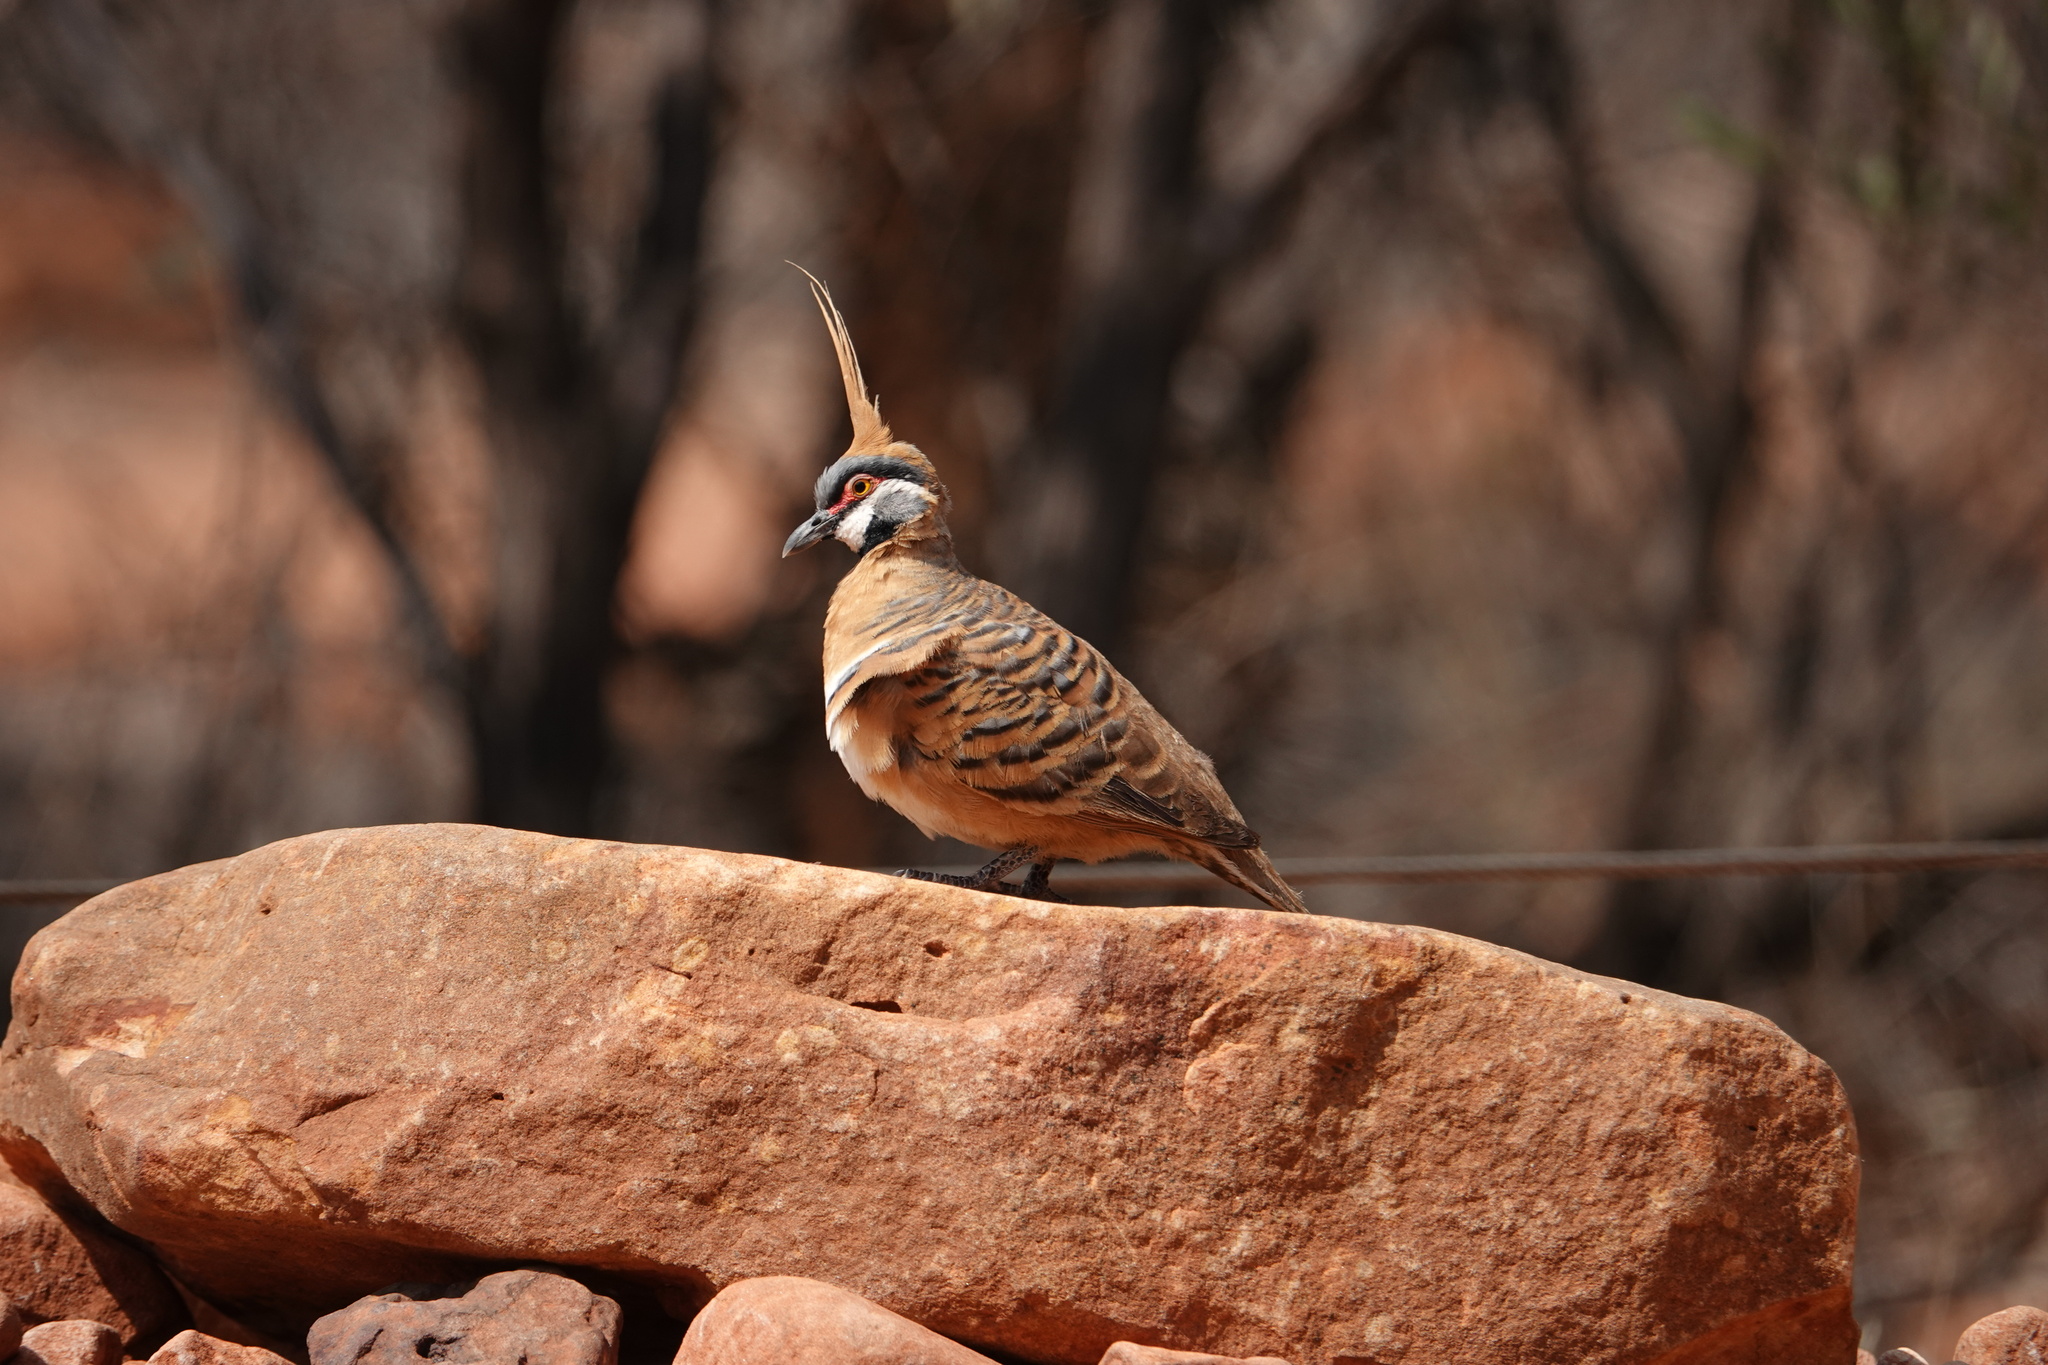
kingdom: Animalia
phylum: Chordata
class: Aves
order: Columbiformes
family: Columbidae
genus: Geophaps
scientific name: Geophaps plumifera
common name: Spinifex pigeon
